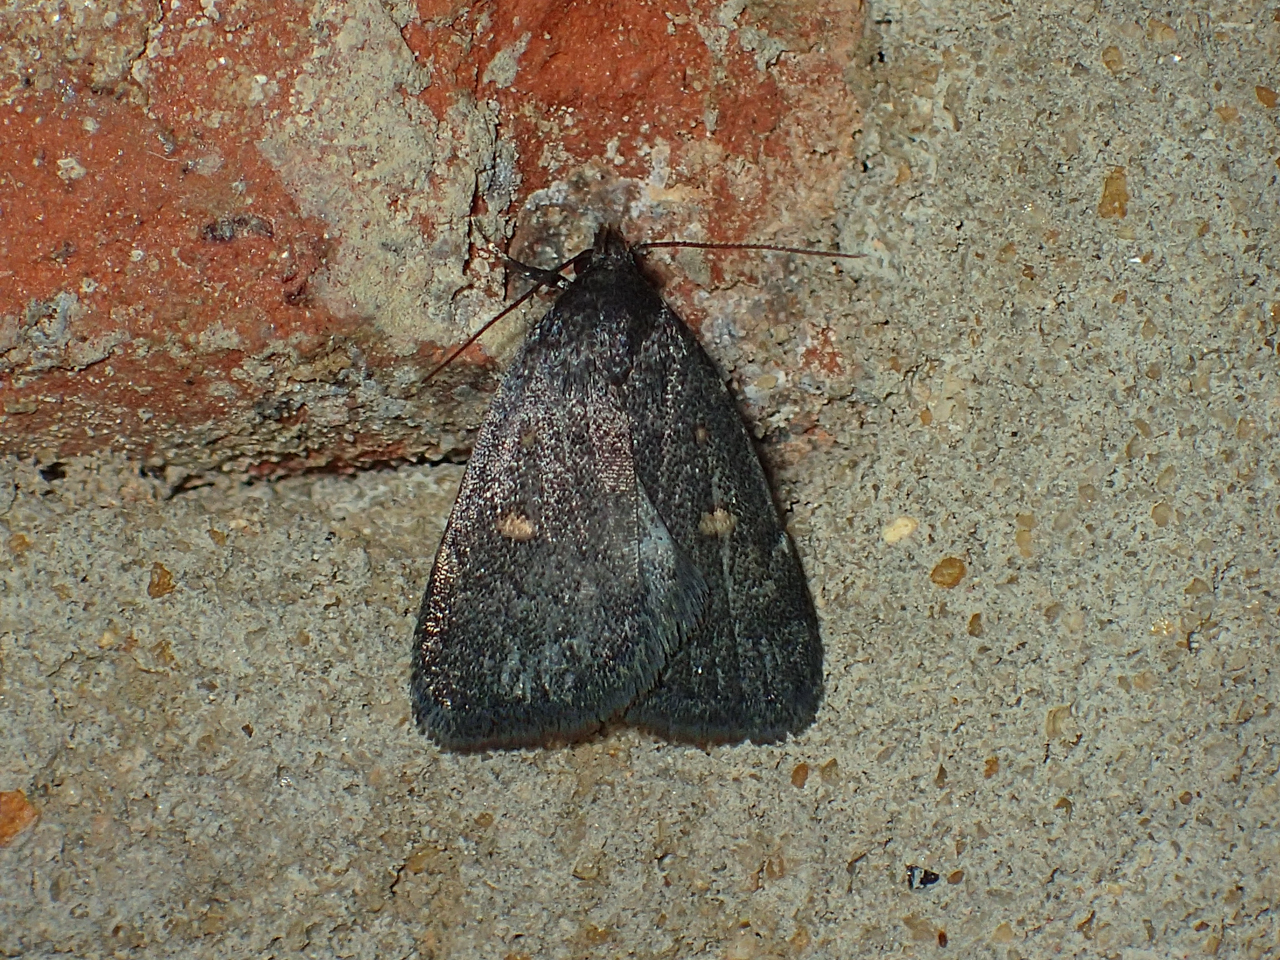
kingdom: Animalia
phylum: Arthropoda
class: Insecta
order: Lepidoptera
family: Erebidae
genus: Idia
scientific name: Idia diminuendis
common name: Orange-spotted idia moth
